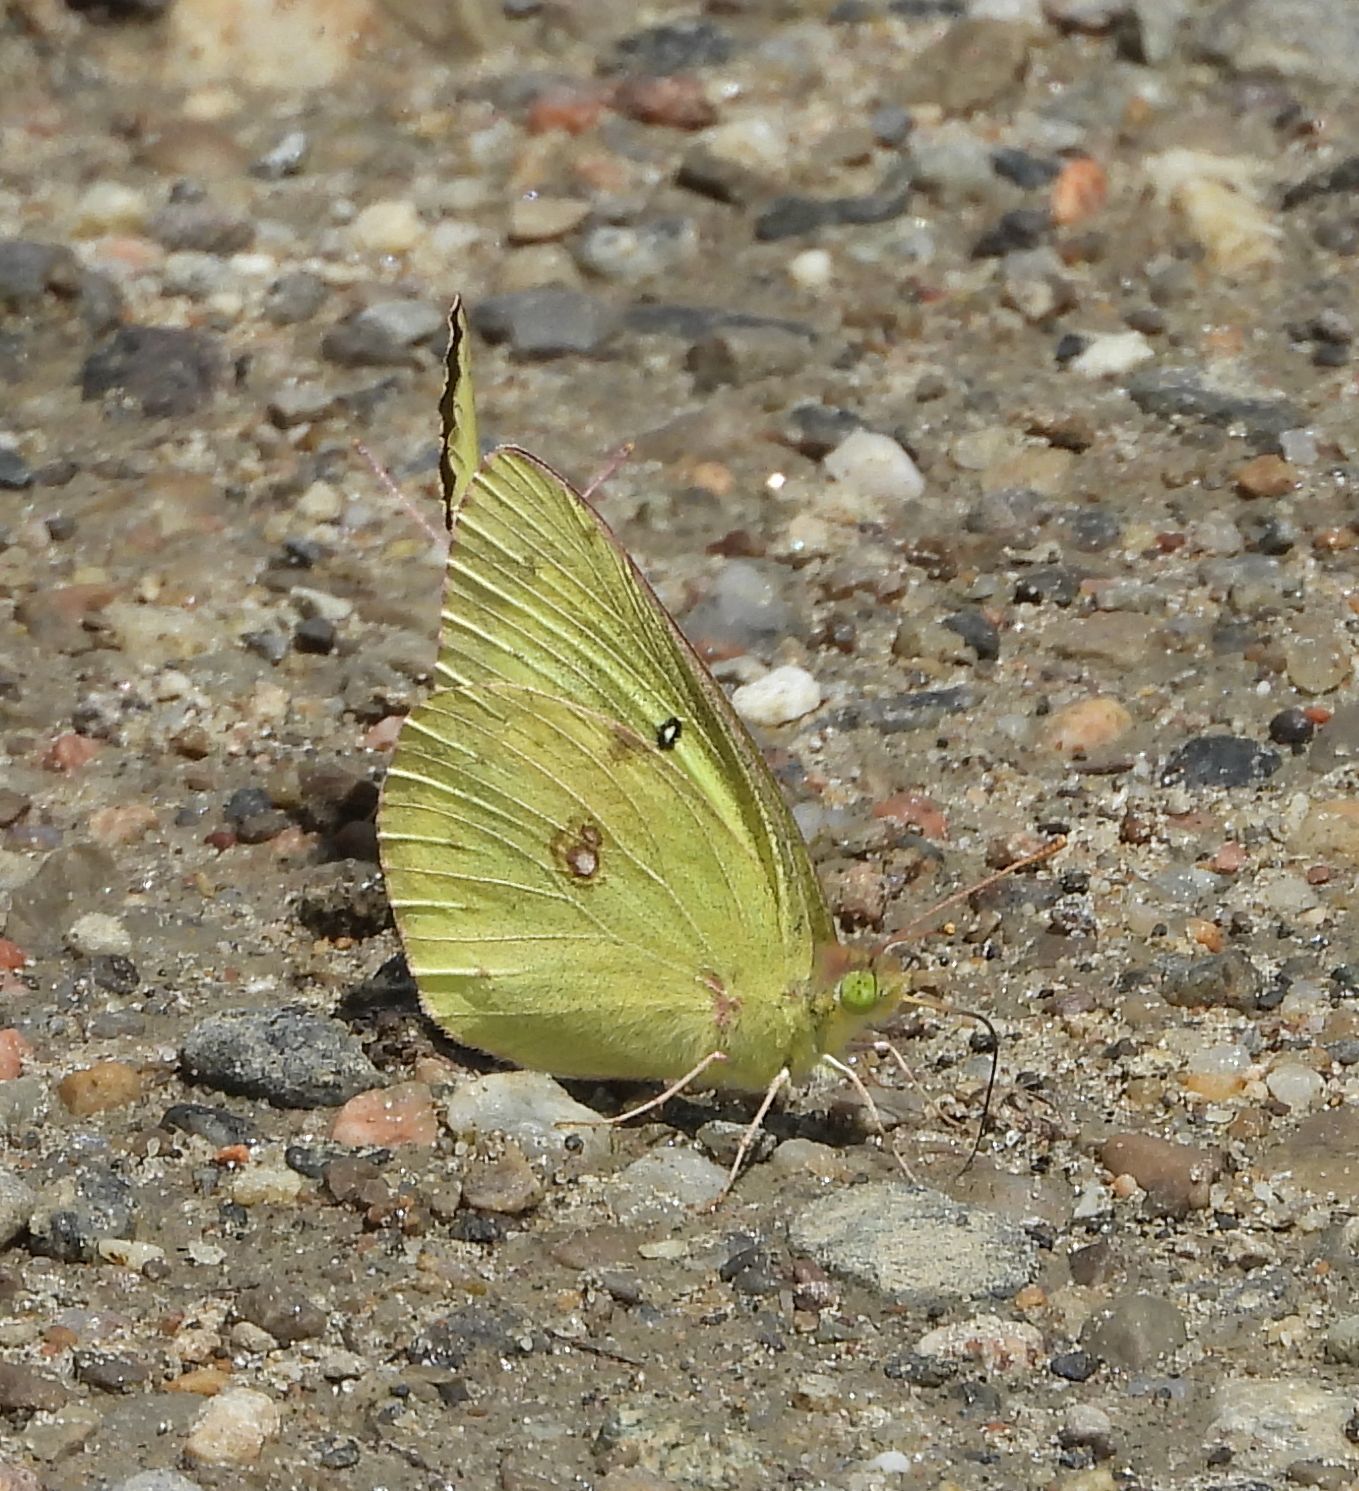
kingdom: Animalia
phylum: Arthropoda
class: Insecta
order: Lepidoptera
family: Pieridae
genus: Colias
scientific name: Colias philodice
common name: Clouded sulphur
